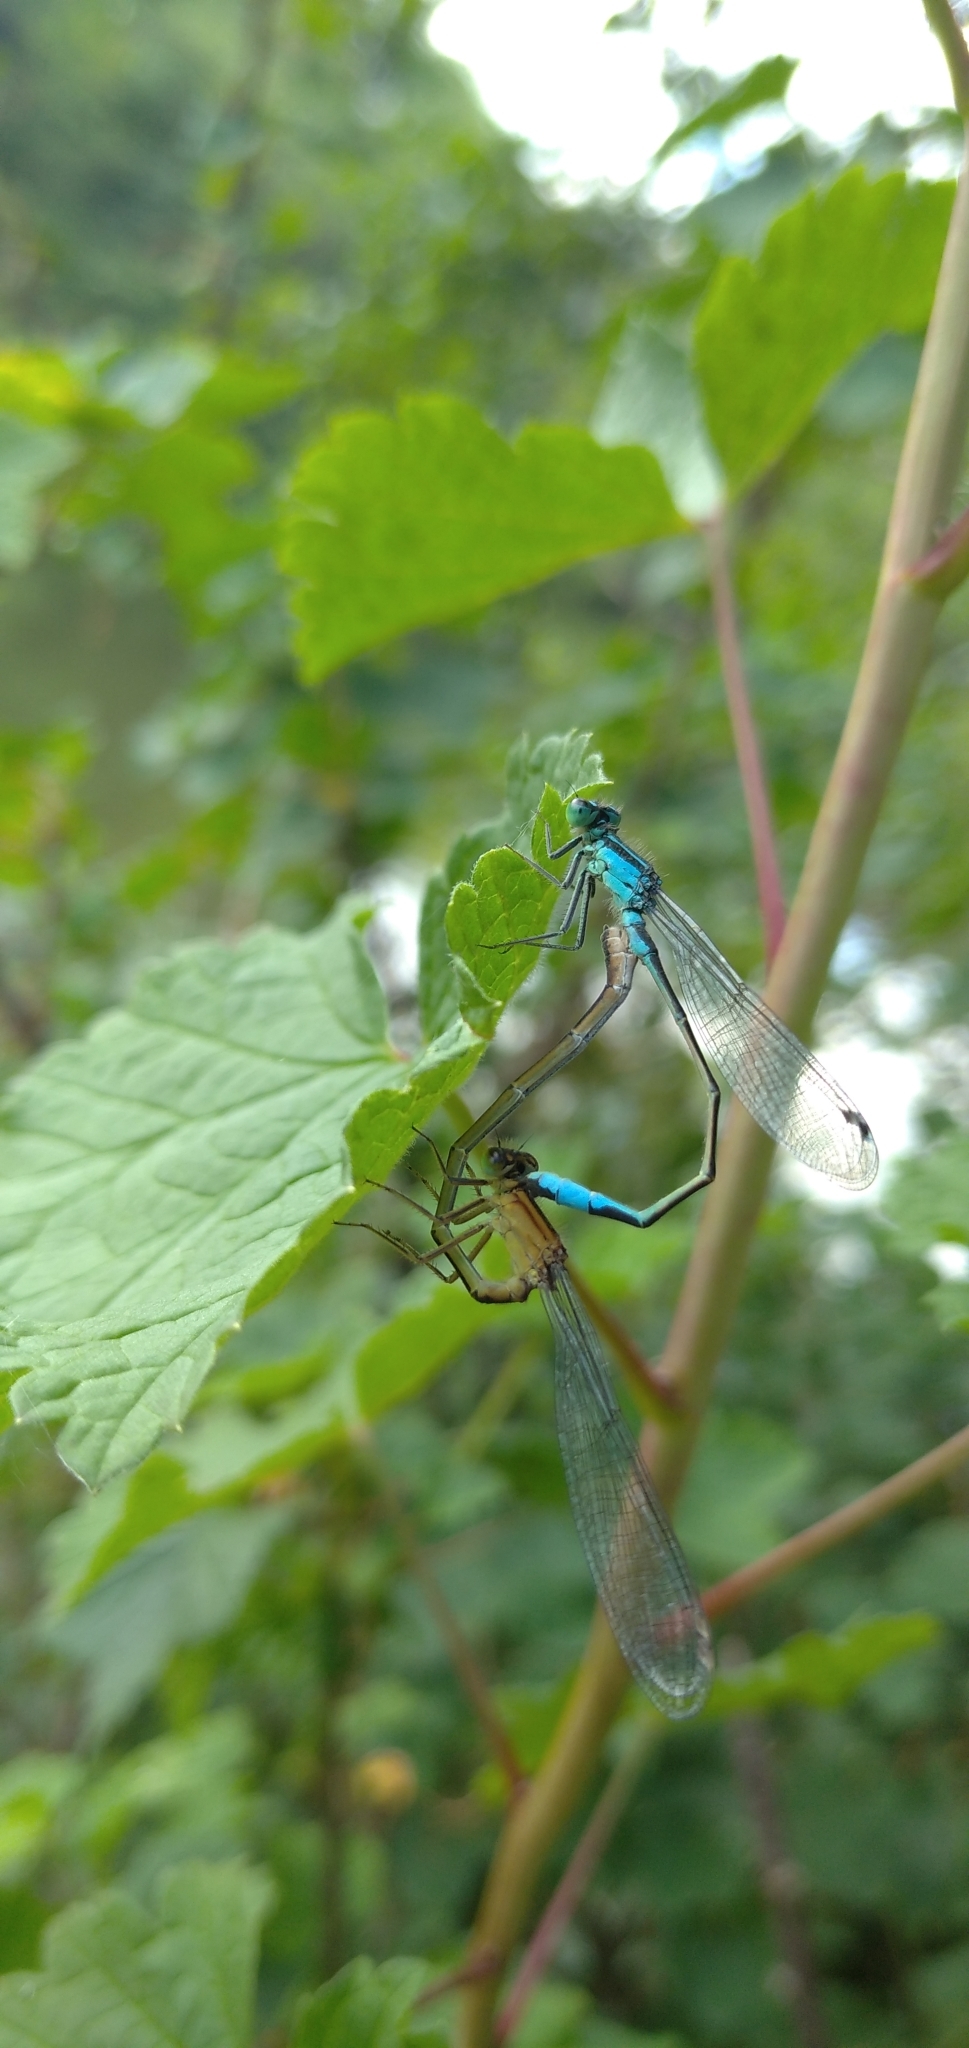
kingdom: Animalia
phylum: Arthropoda
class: Insecta
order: Odonata
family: Coenagrionidae
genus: Ischnura
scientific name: Ischnura elegans
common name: Blue-tailed damselfly
